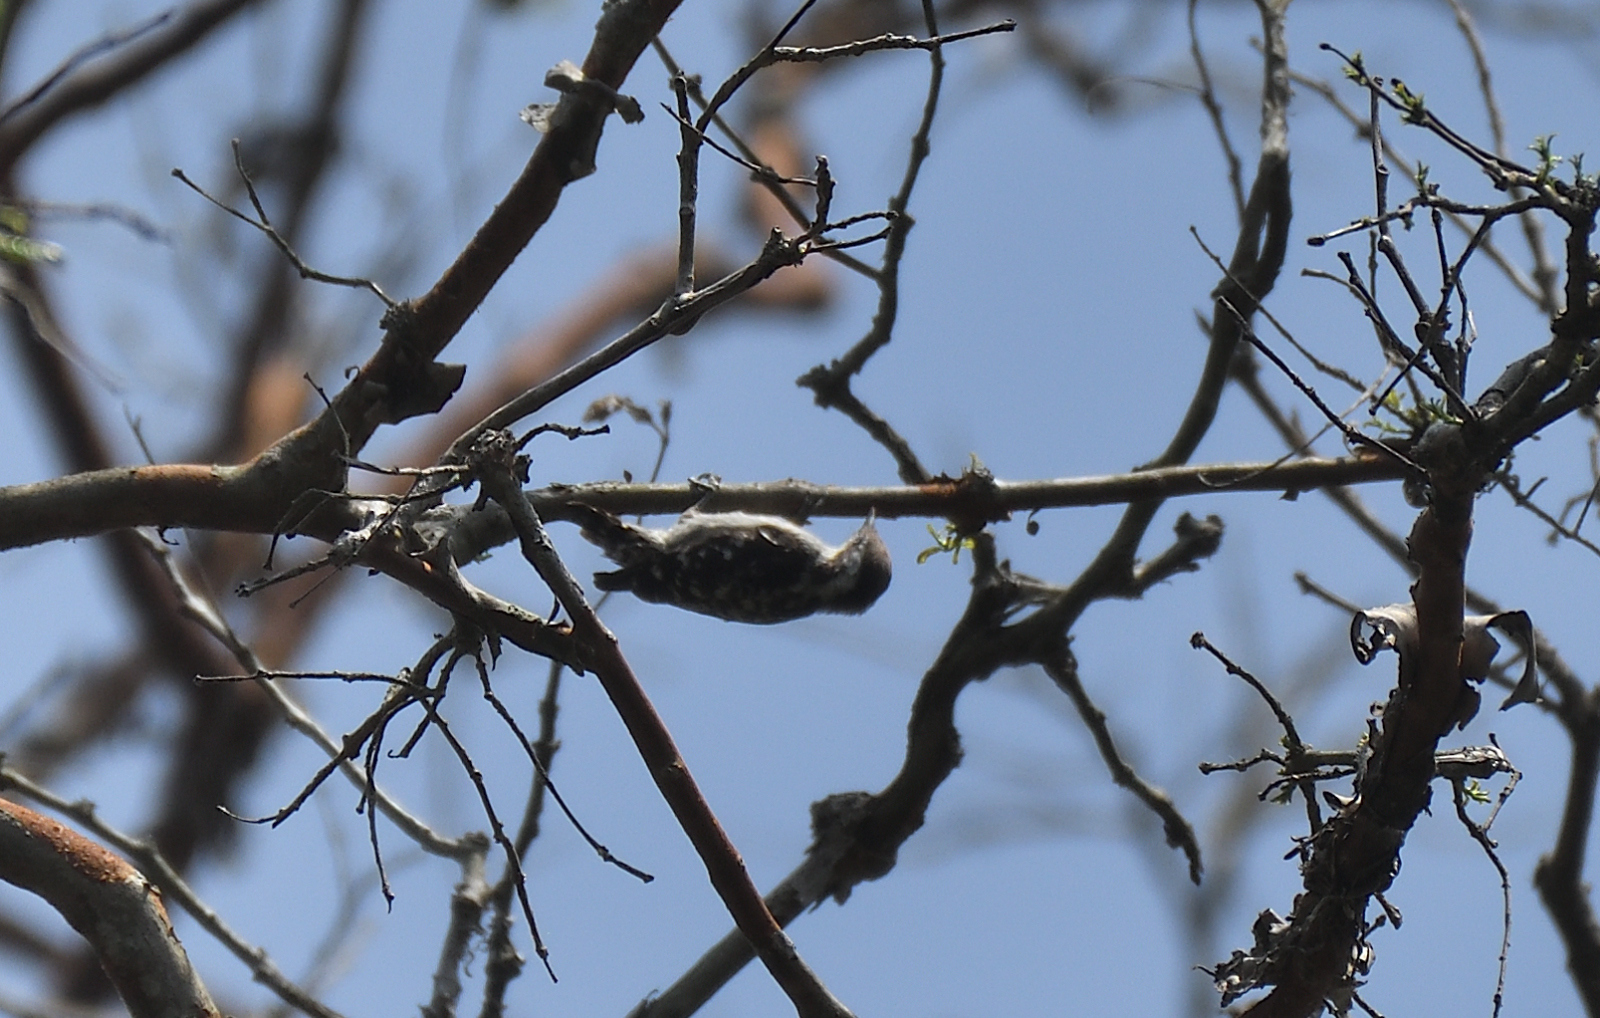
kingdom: Animalia
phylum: Chordata
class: Aves
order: Piciformes
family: Picidae
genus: Yungipicus
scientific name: Yungipicus nanus
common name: Brown-capped pygmy woodpecker
